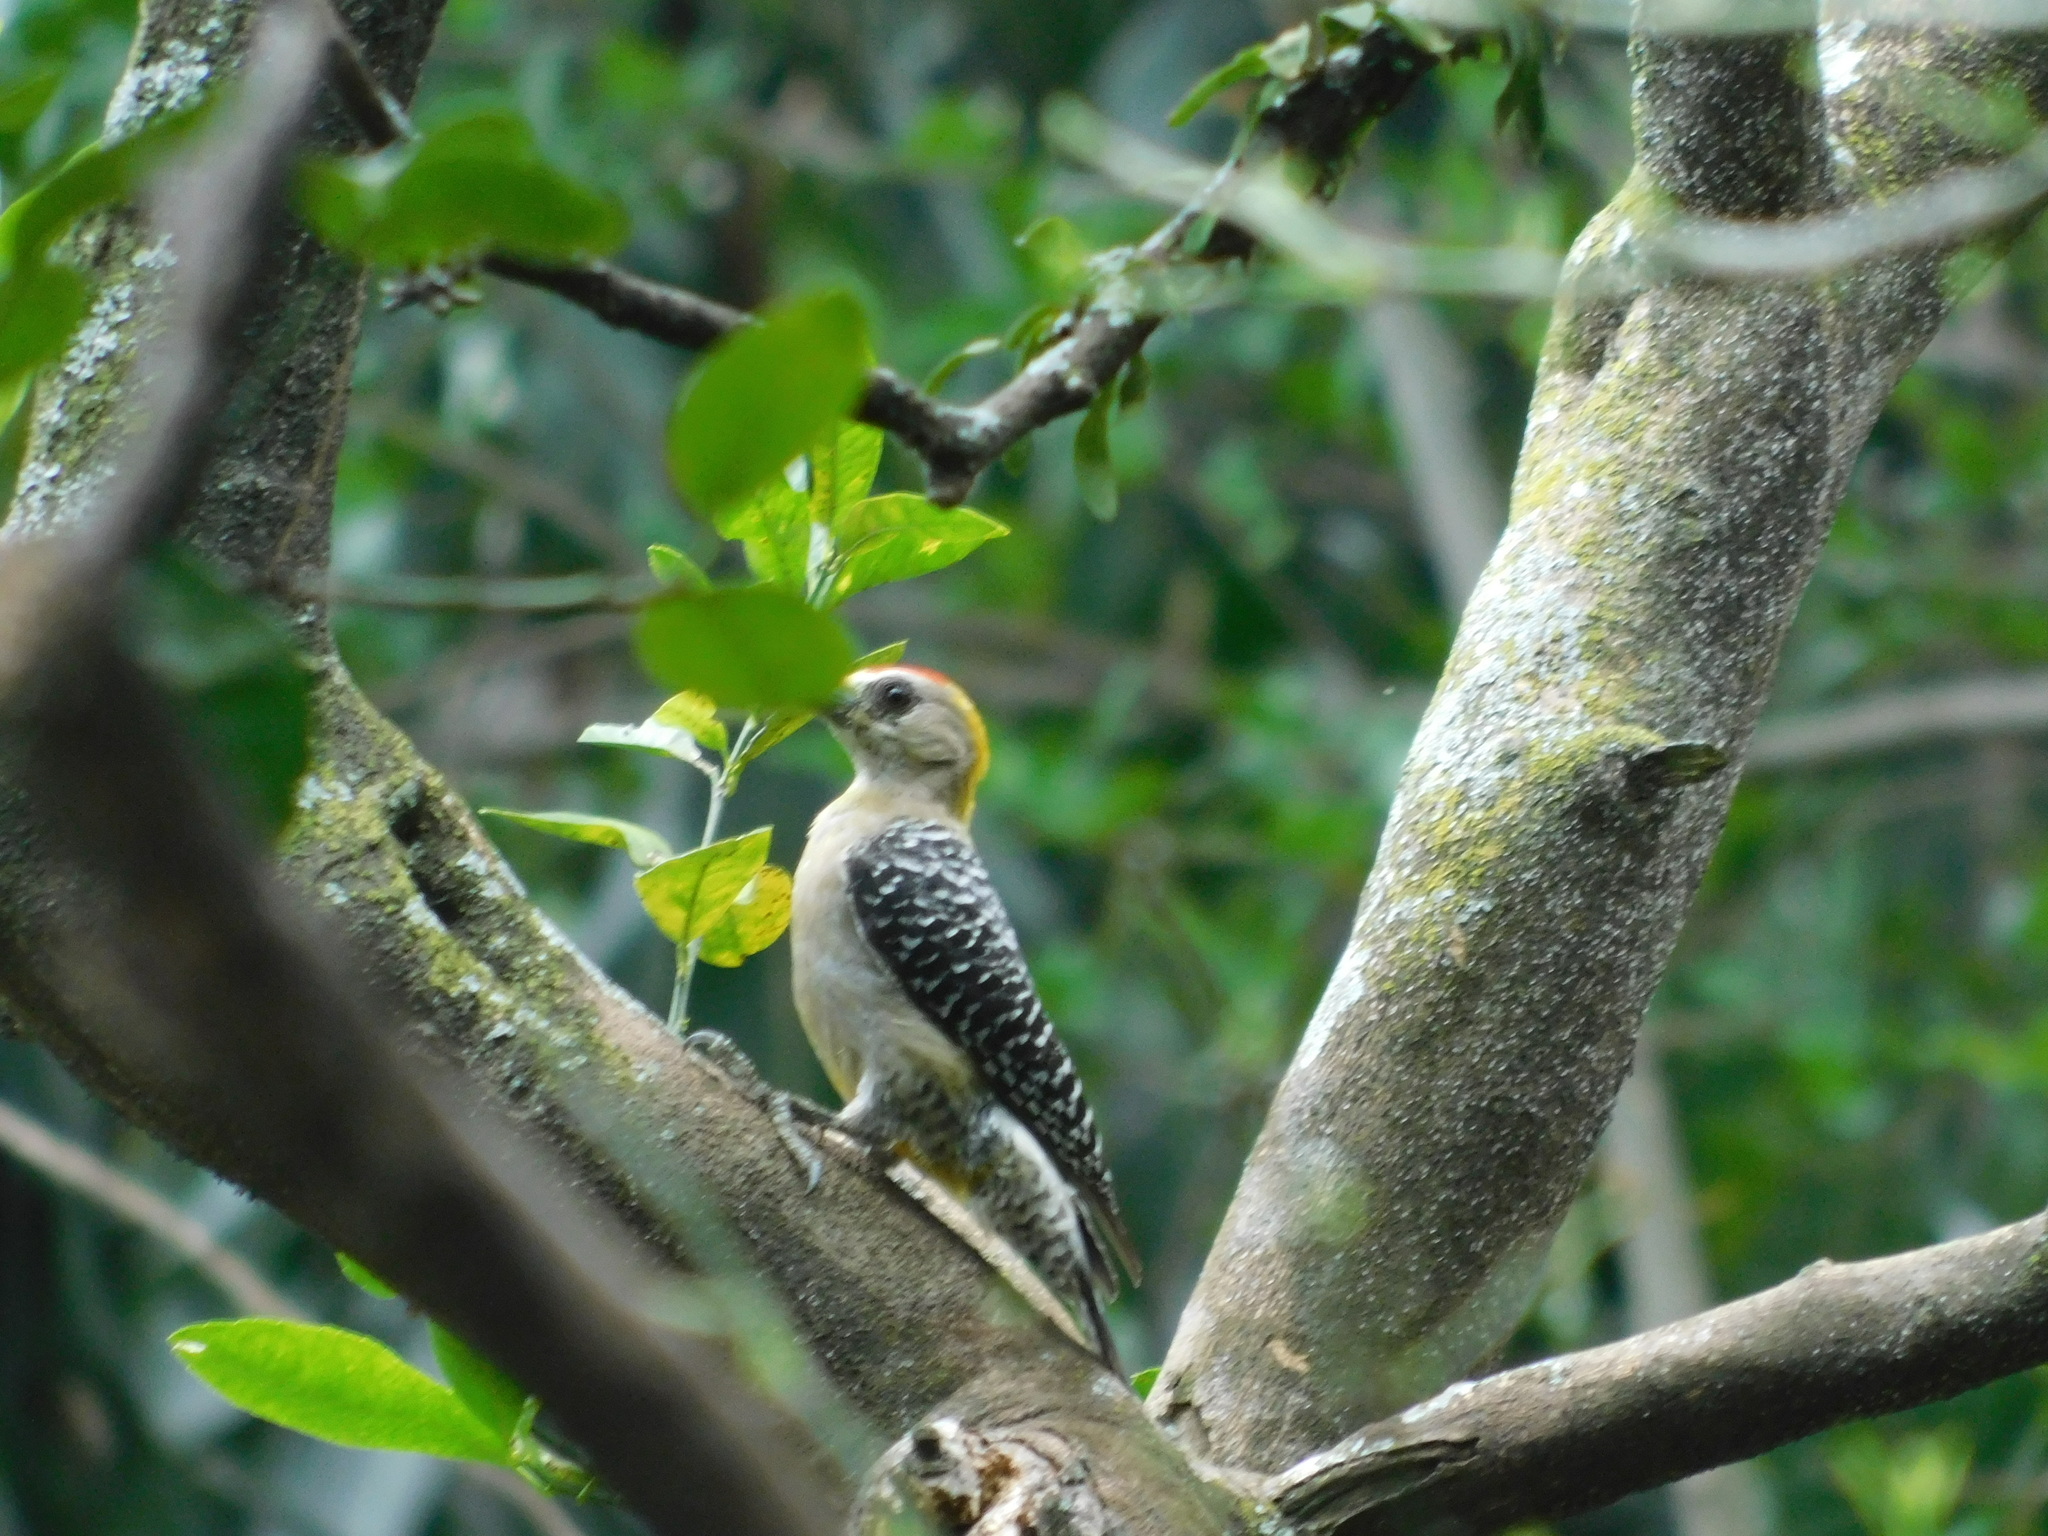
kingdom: Animalia
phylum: Chordata
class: Aves
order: Piciformes
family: Picidae
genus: Melanerpes
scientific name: Melanerpes hoffmannii
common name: Hoffmann's woodpecker
